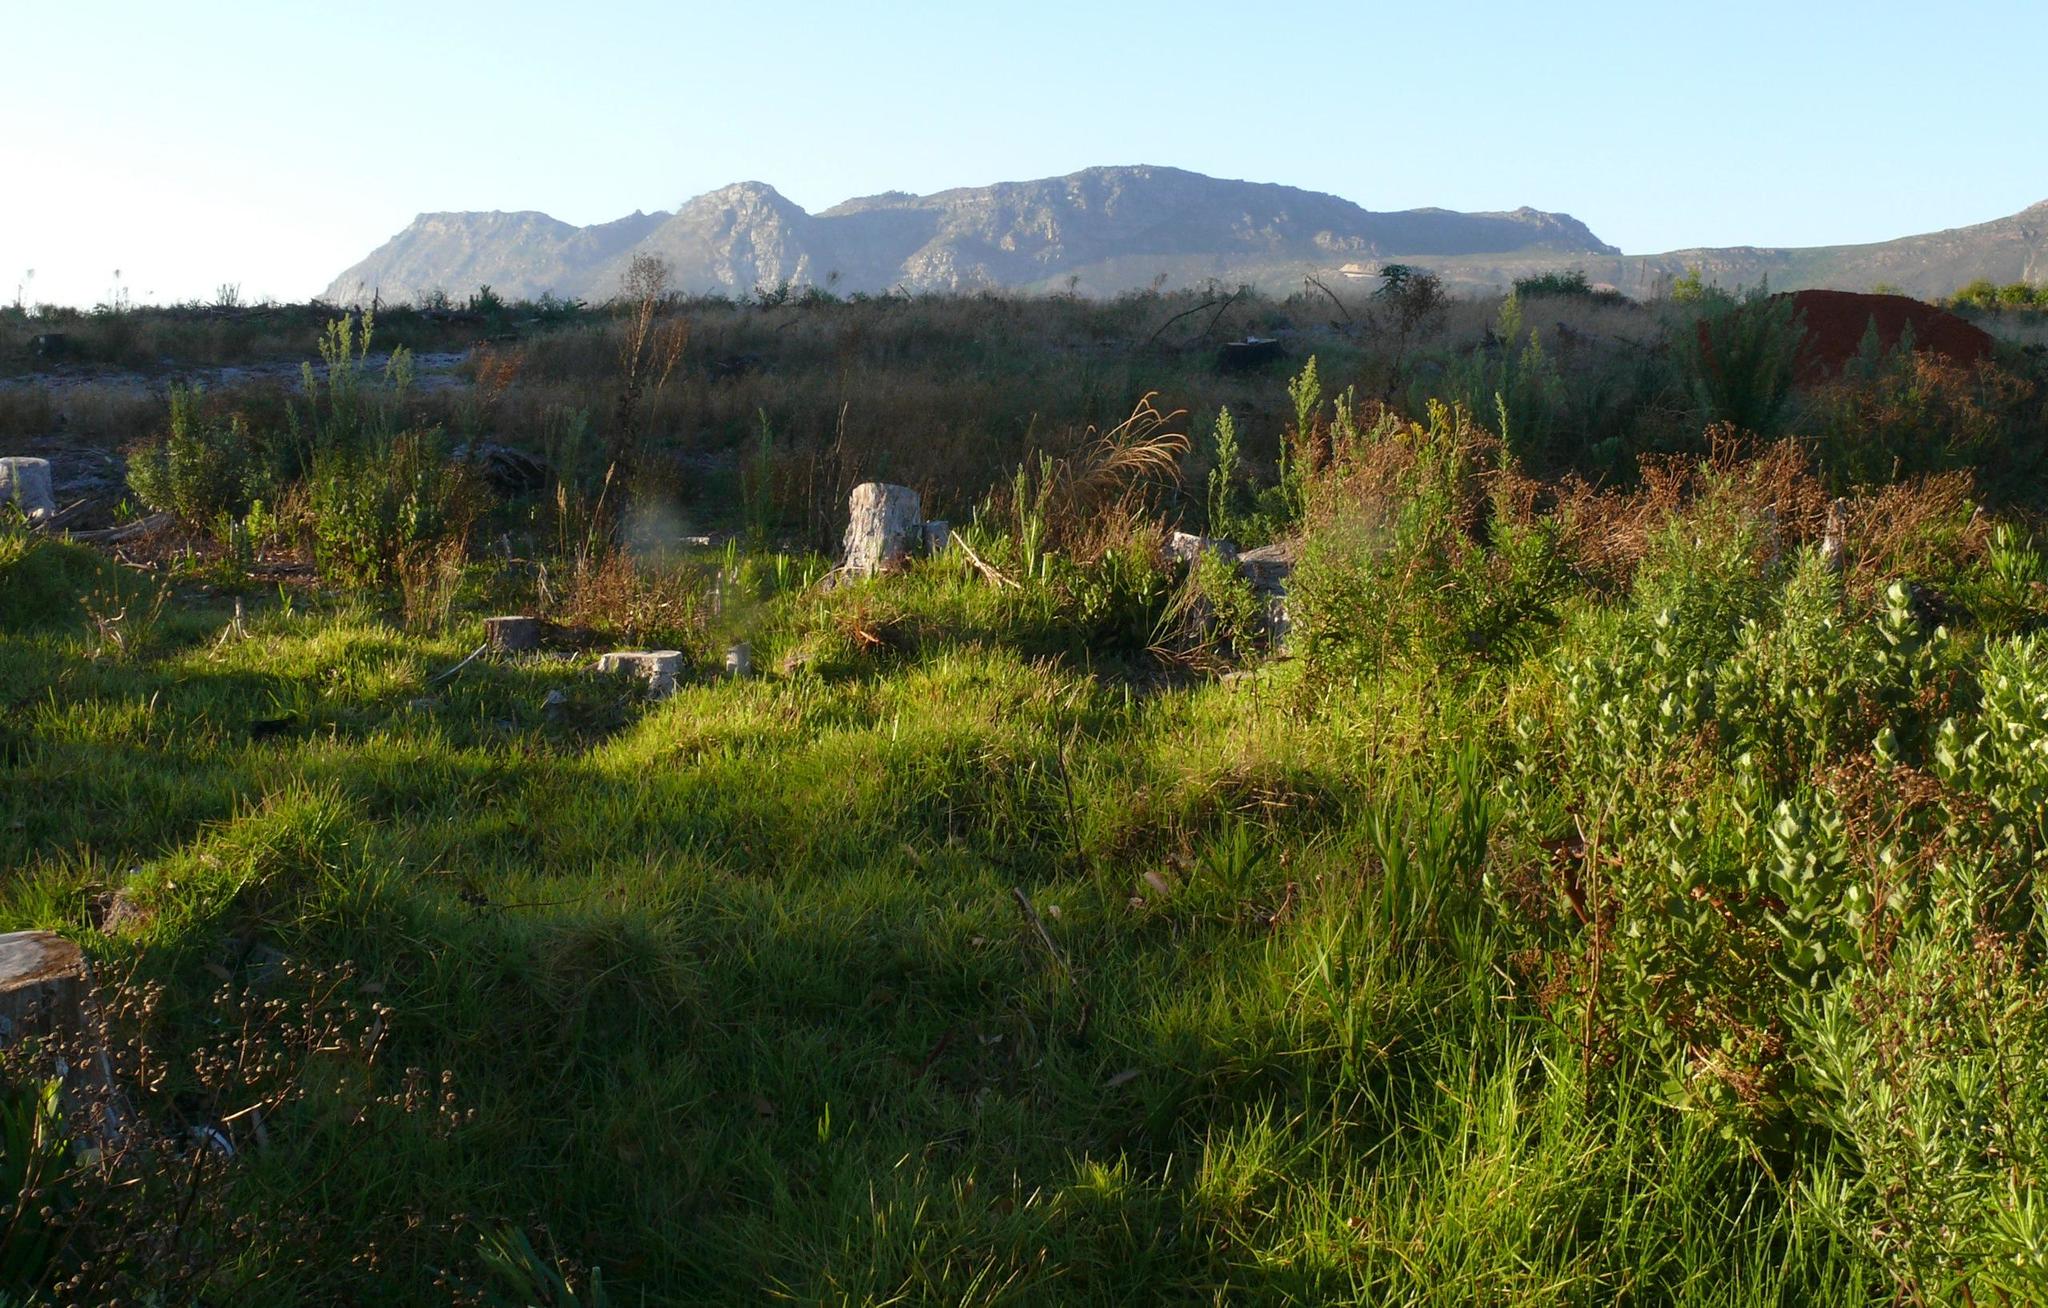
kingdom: Plantae
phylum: Tracheophyta
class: Liliopsida
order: Poales
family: Poaceae
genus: Cenchrus
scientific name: Cenchrus clandestinus
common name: Kikuyugrass
